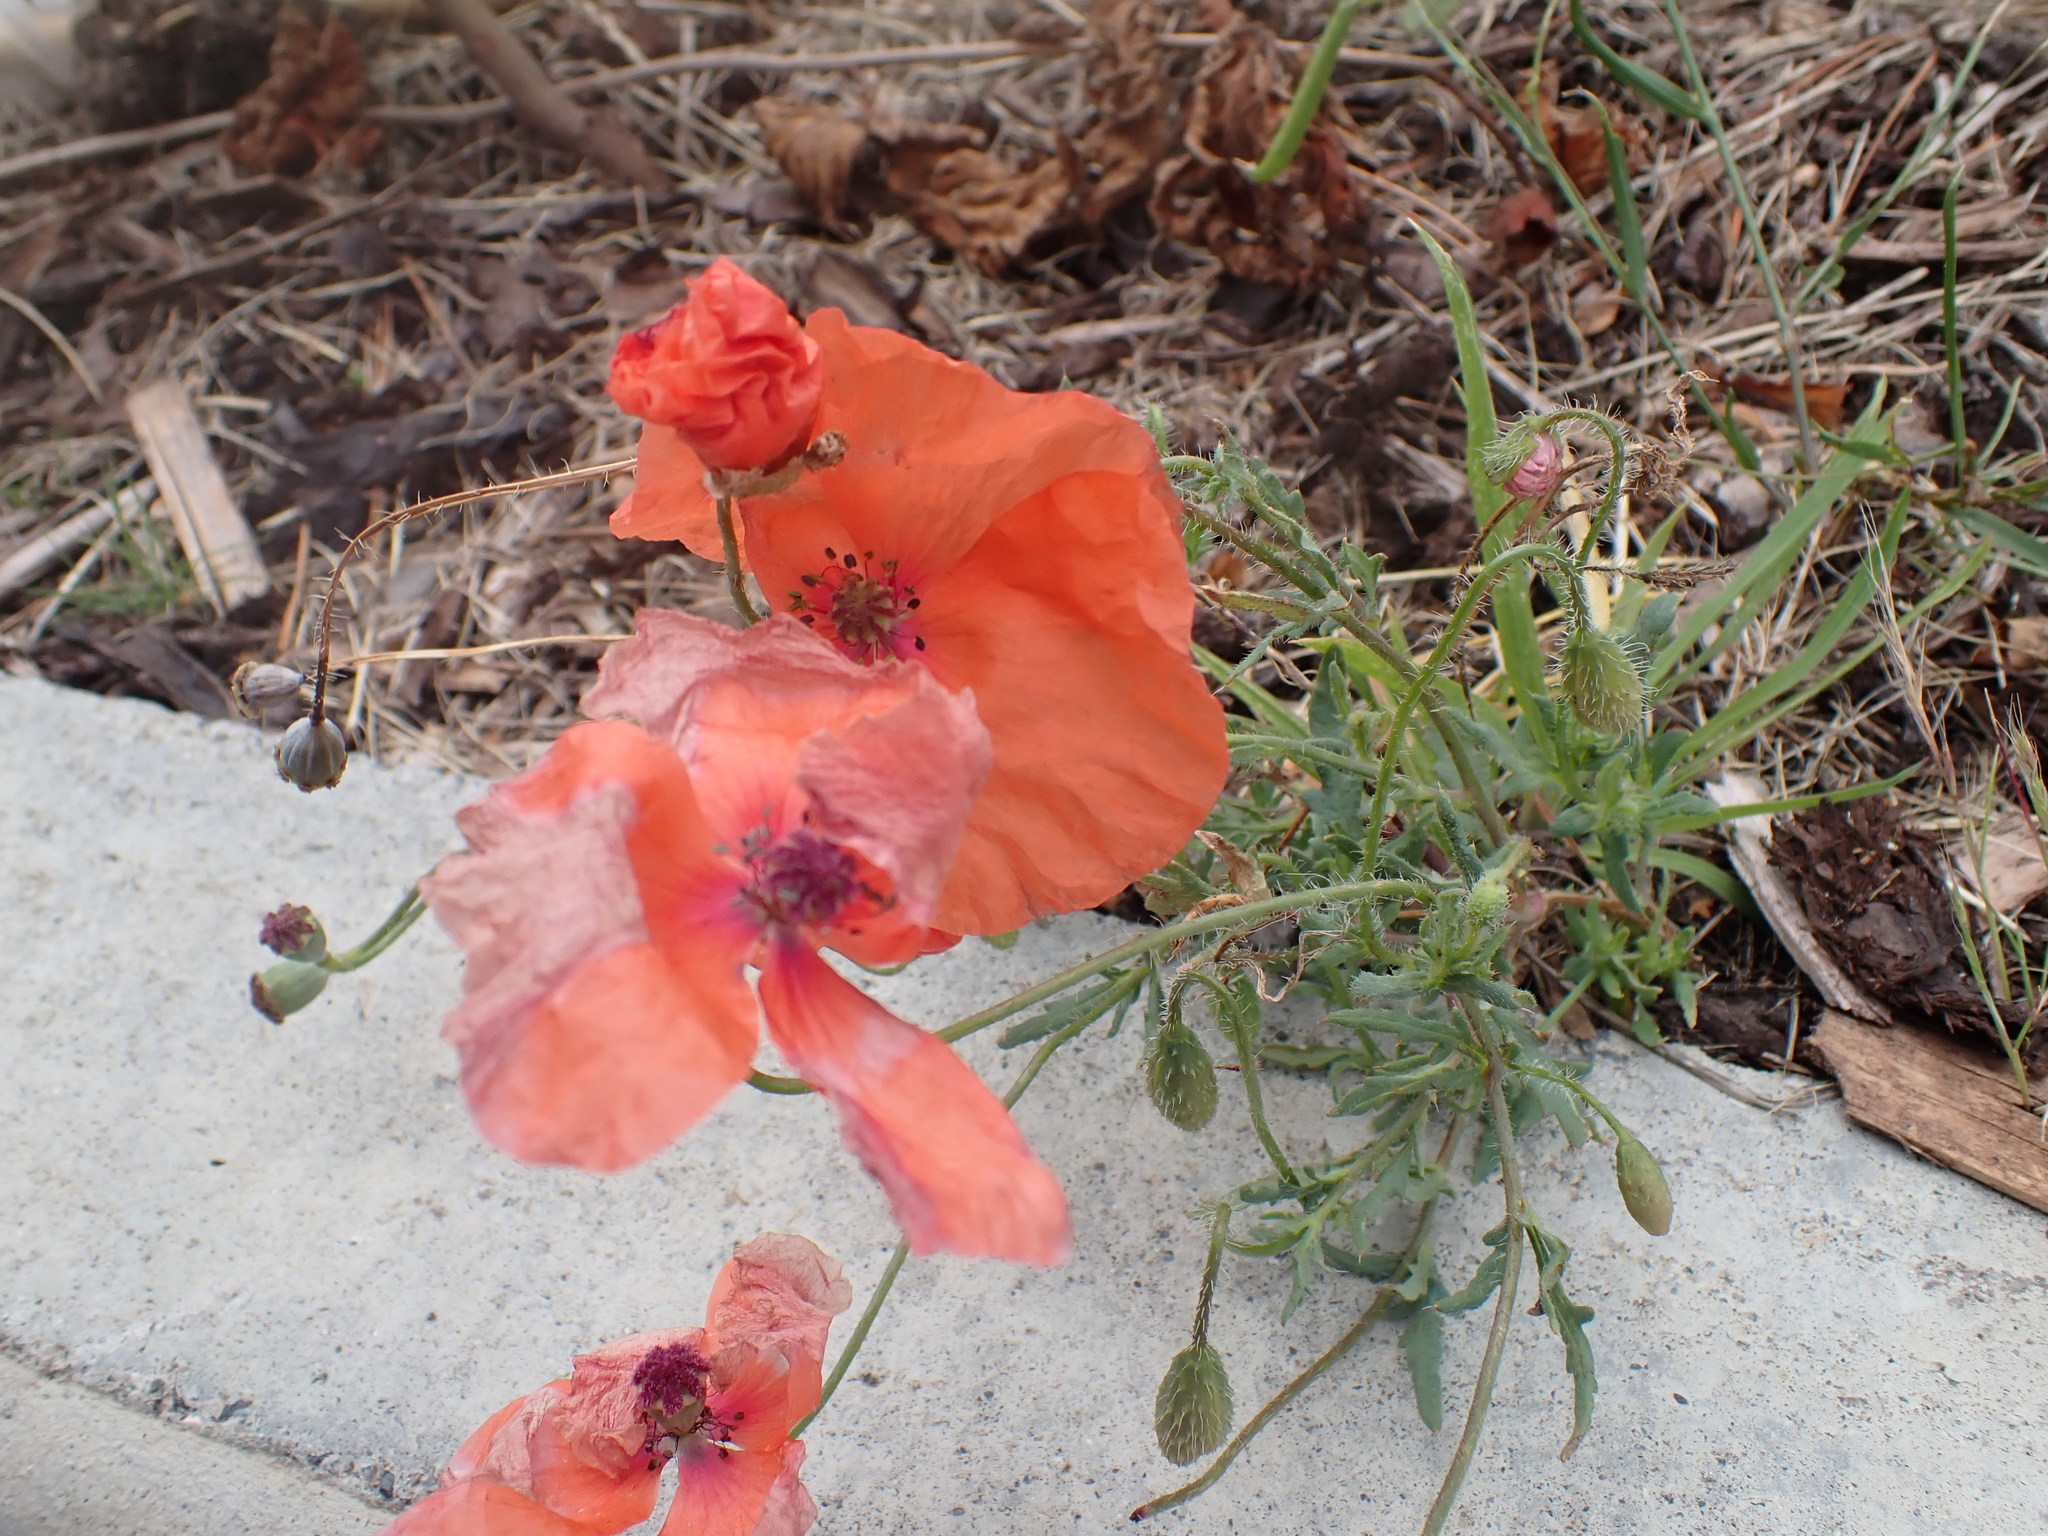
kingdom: Plantae
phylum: Tracheophyta
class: Magnoliopsida
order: Ranunculales
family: Papaveraceae
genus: Papaver
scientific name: Papaver rhoeas
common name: Corn poppy
